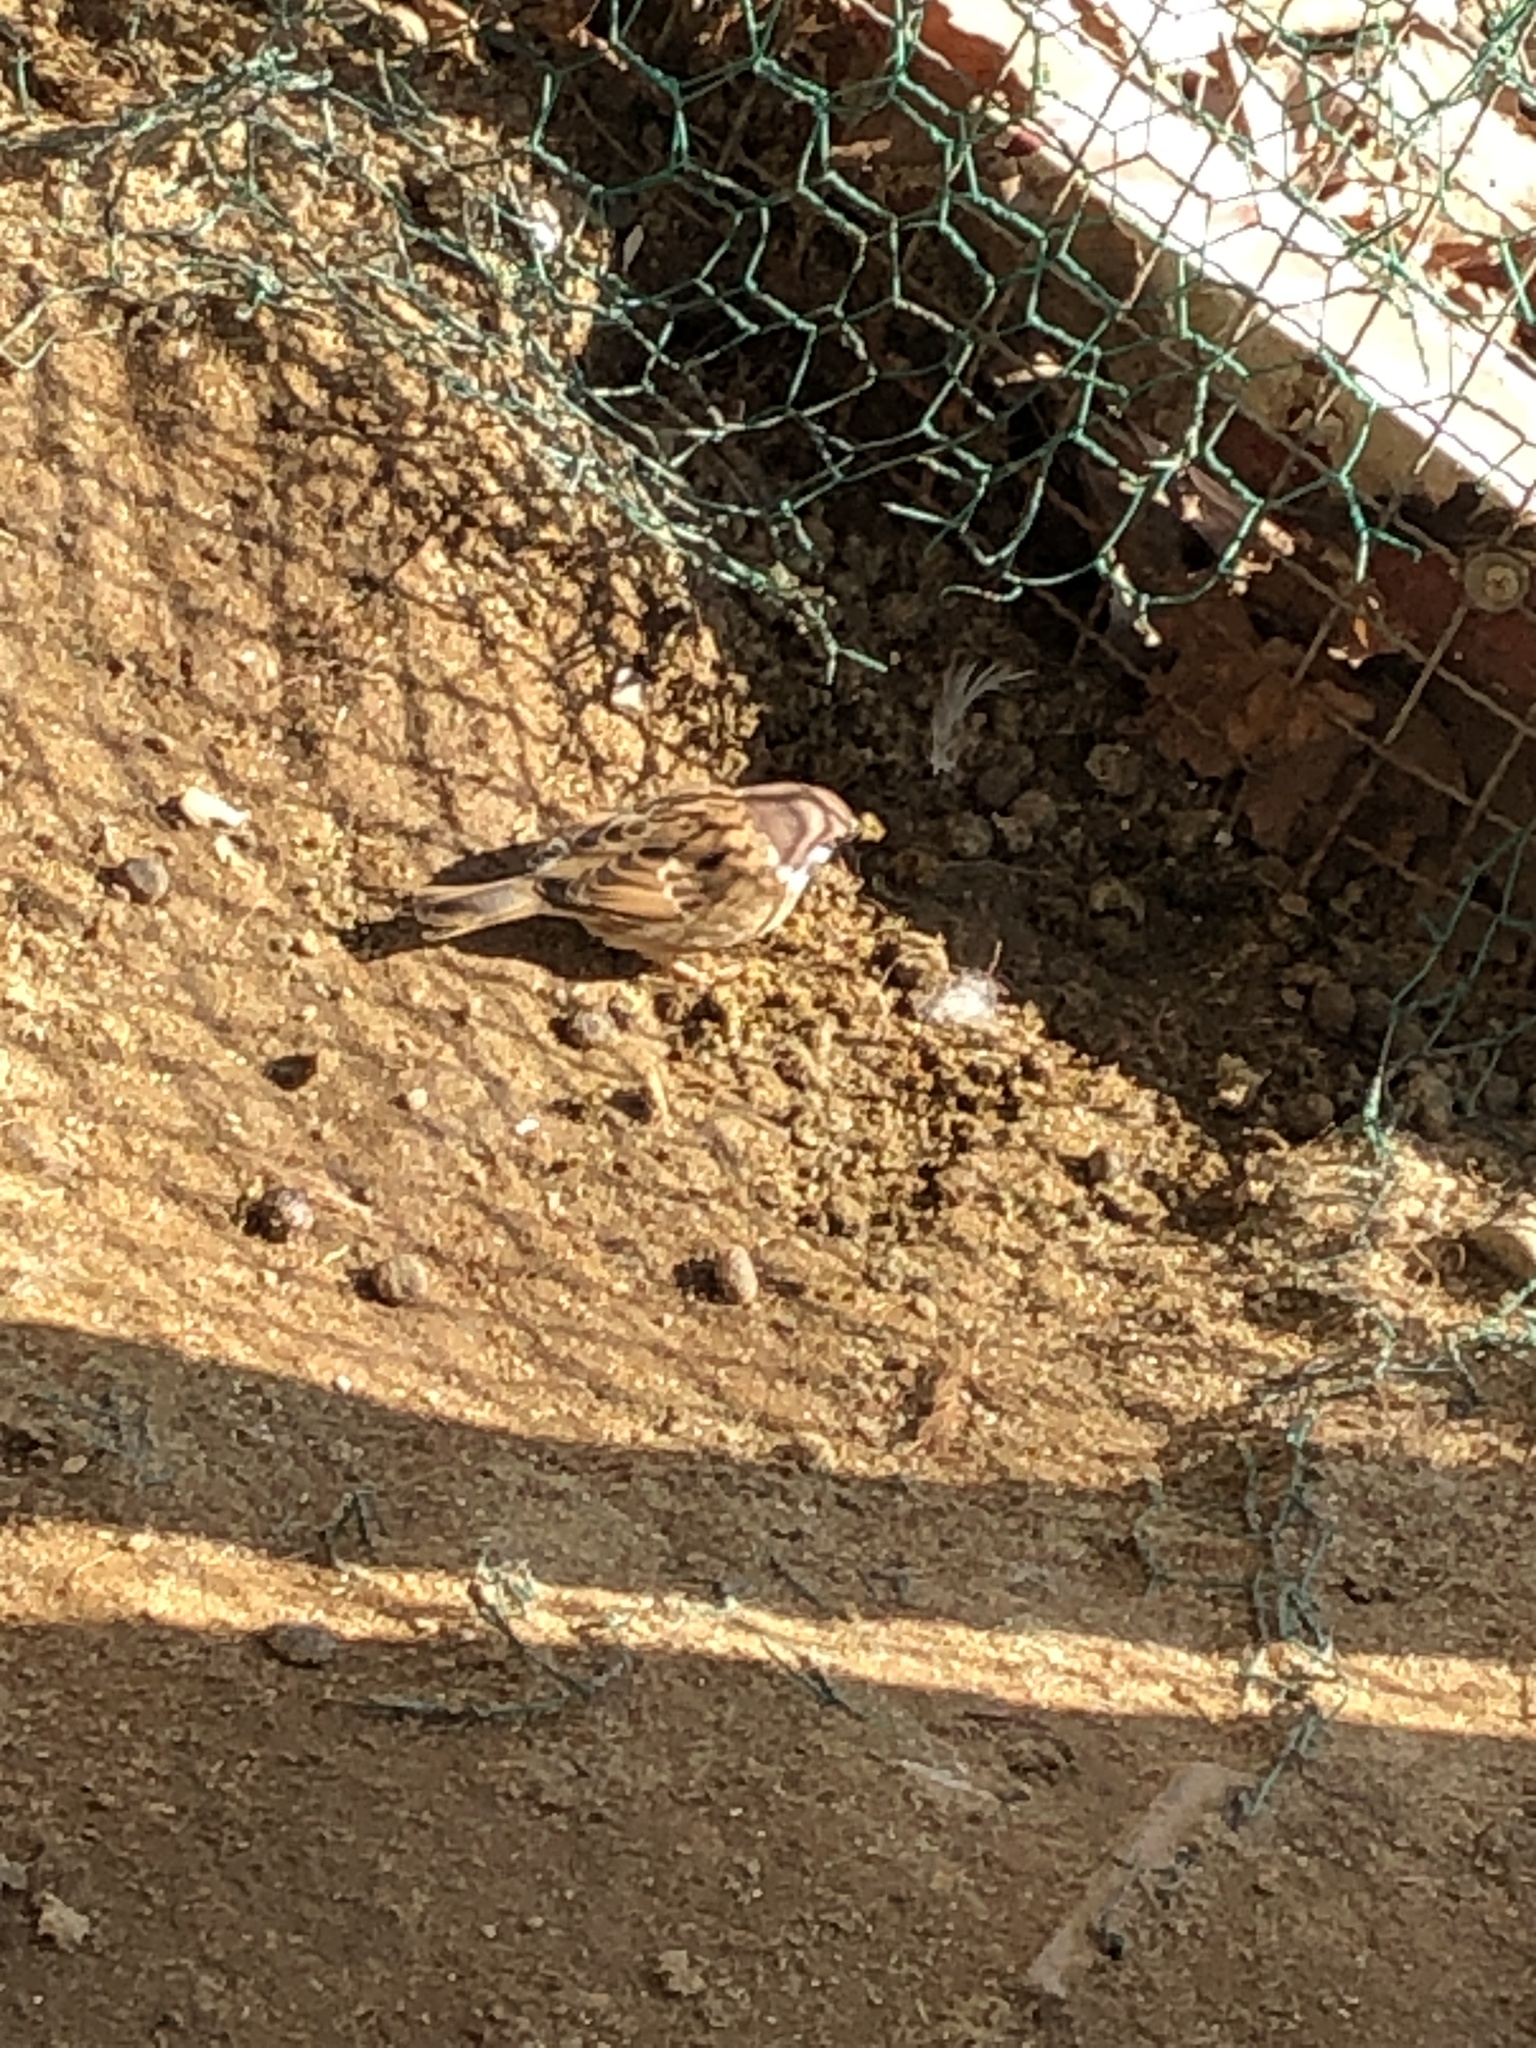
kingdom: Animalia
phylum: Chordata
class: Aves
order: Passeriformes
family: Passeridae
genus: Passer
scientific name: Passer montanus
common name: Eurasian tree sparrow
